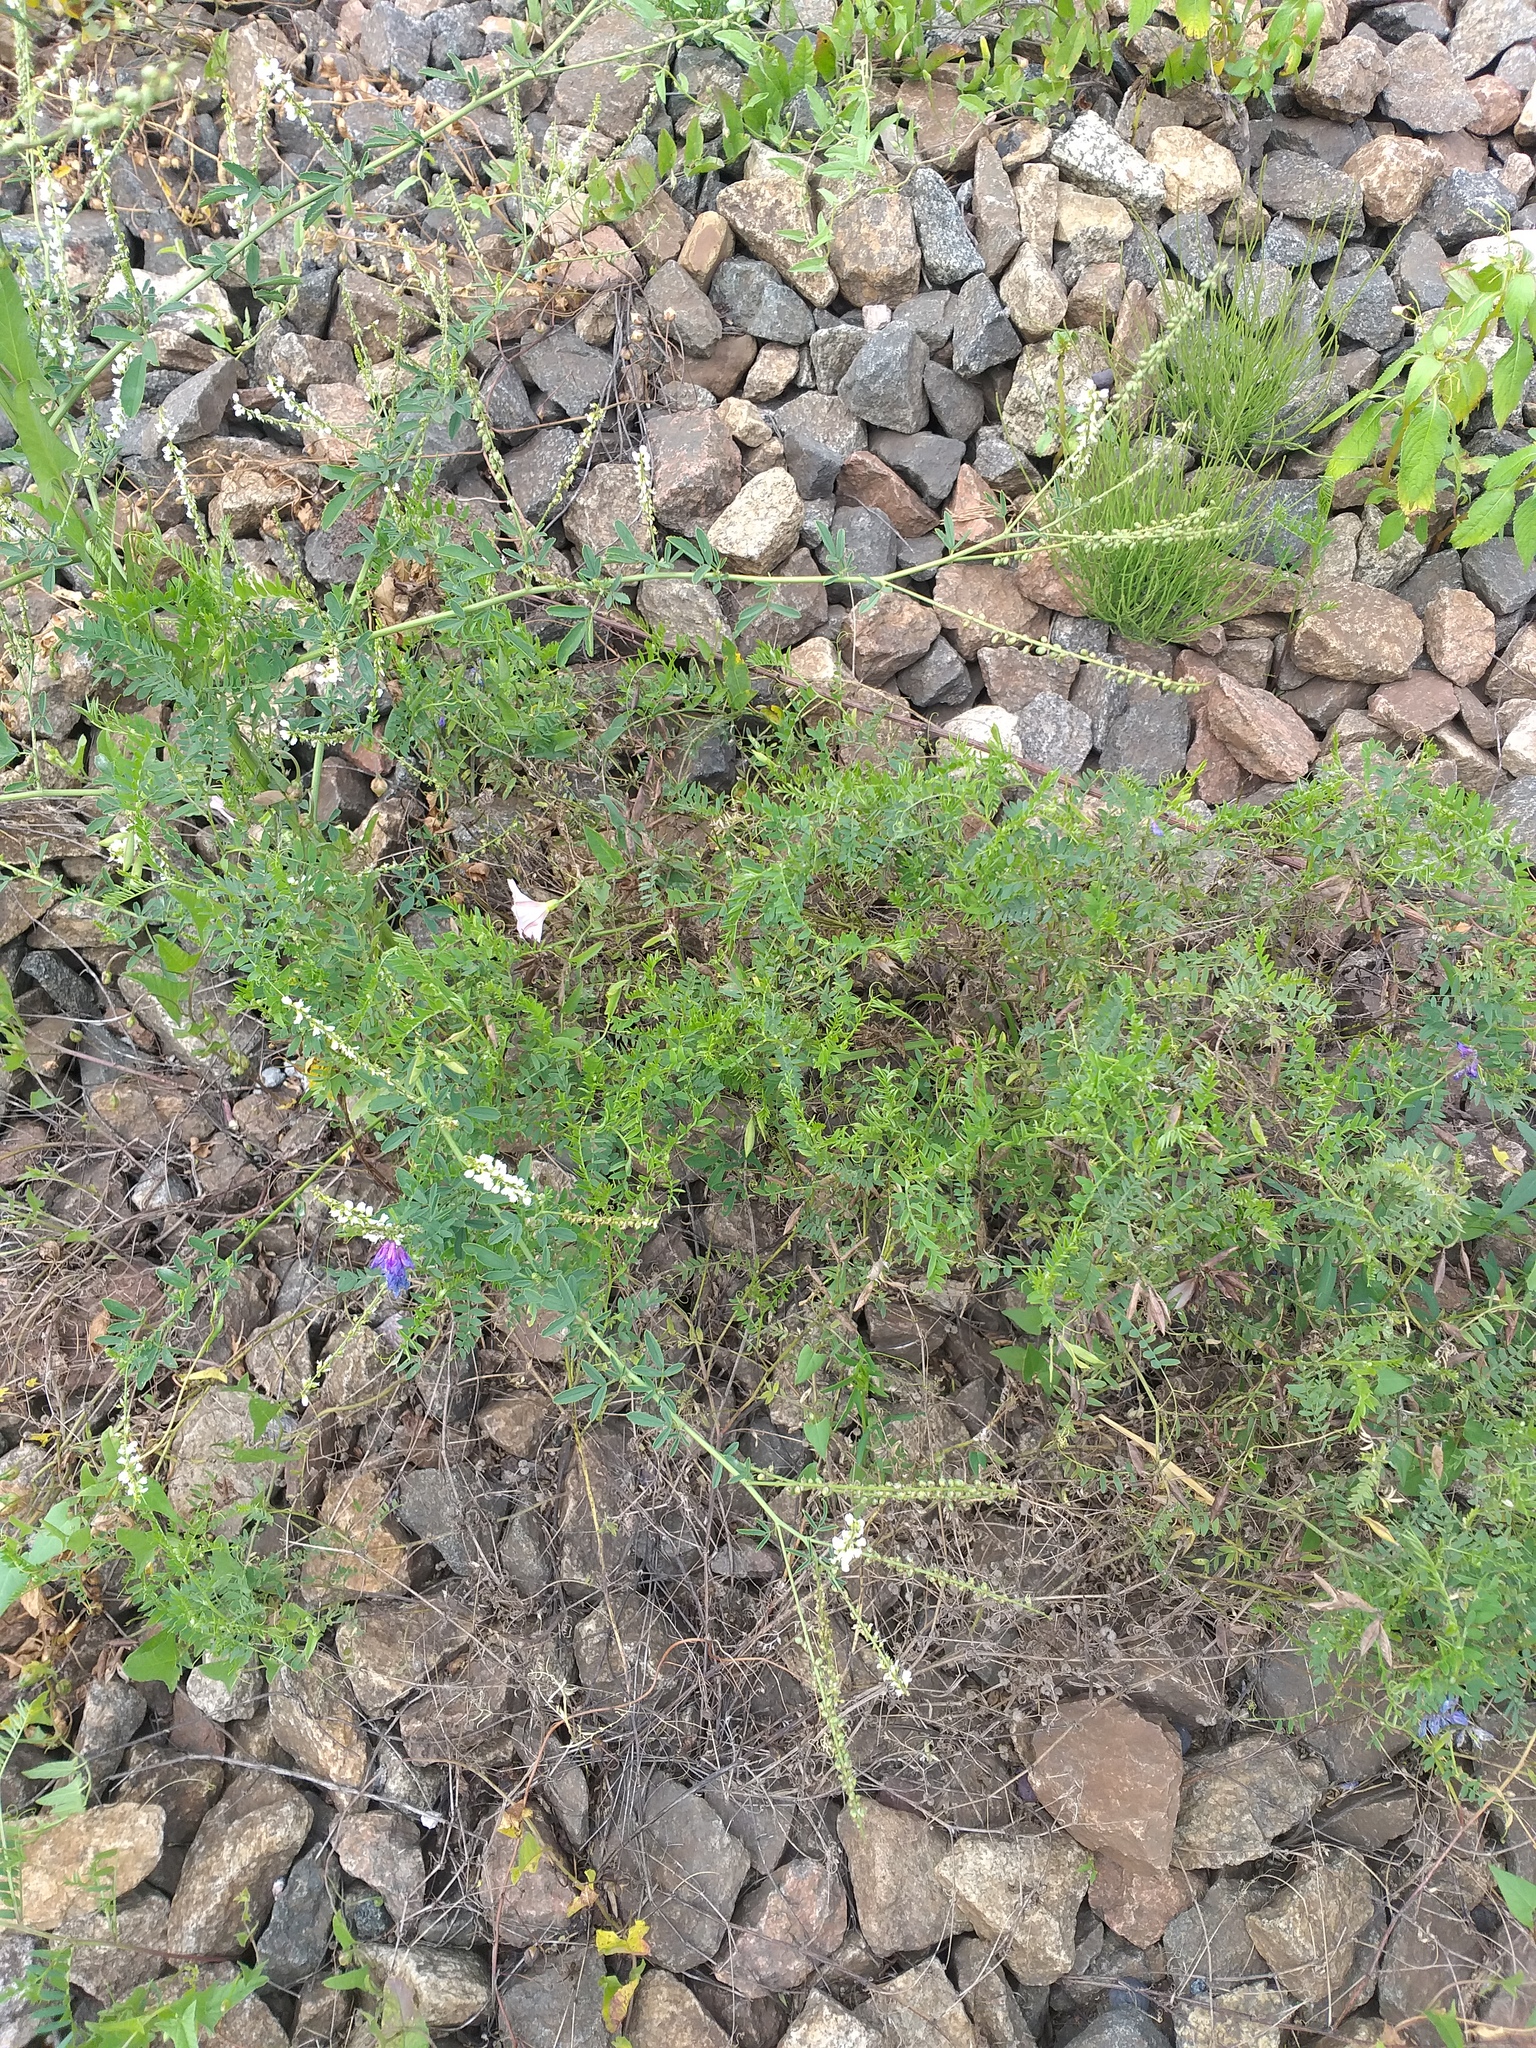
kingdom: Plantae
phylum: Tracheophyta
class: Magnoliopsida
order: Fabales
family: Fabaceae
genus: Melilotus
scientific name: Melilotus albus
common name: White melilot
